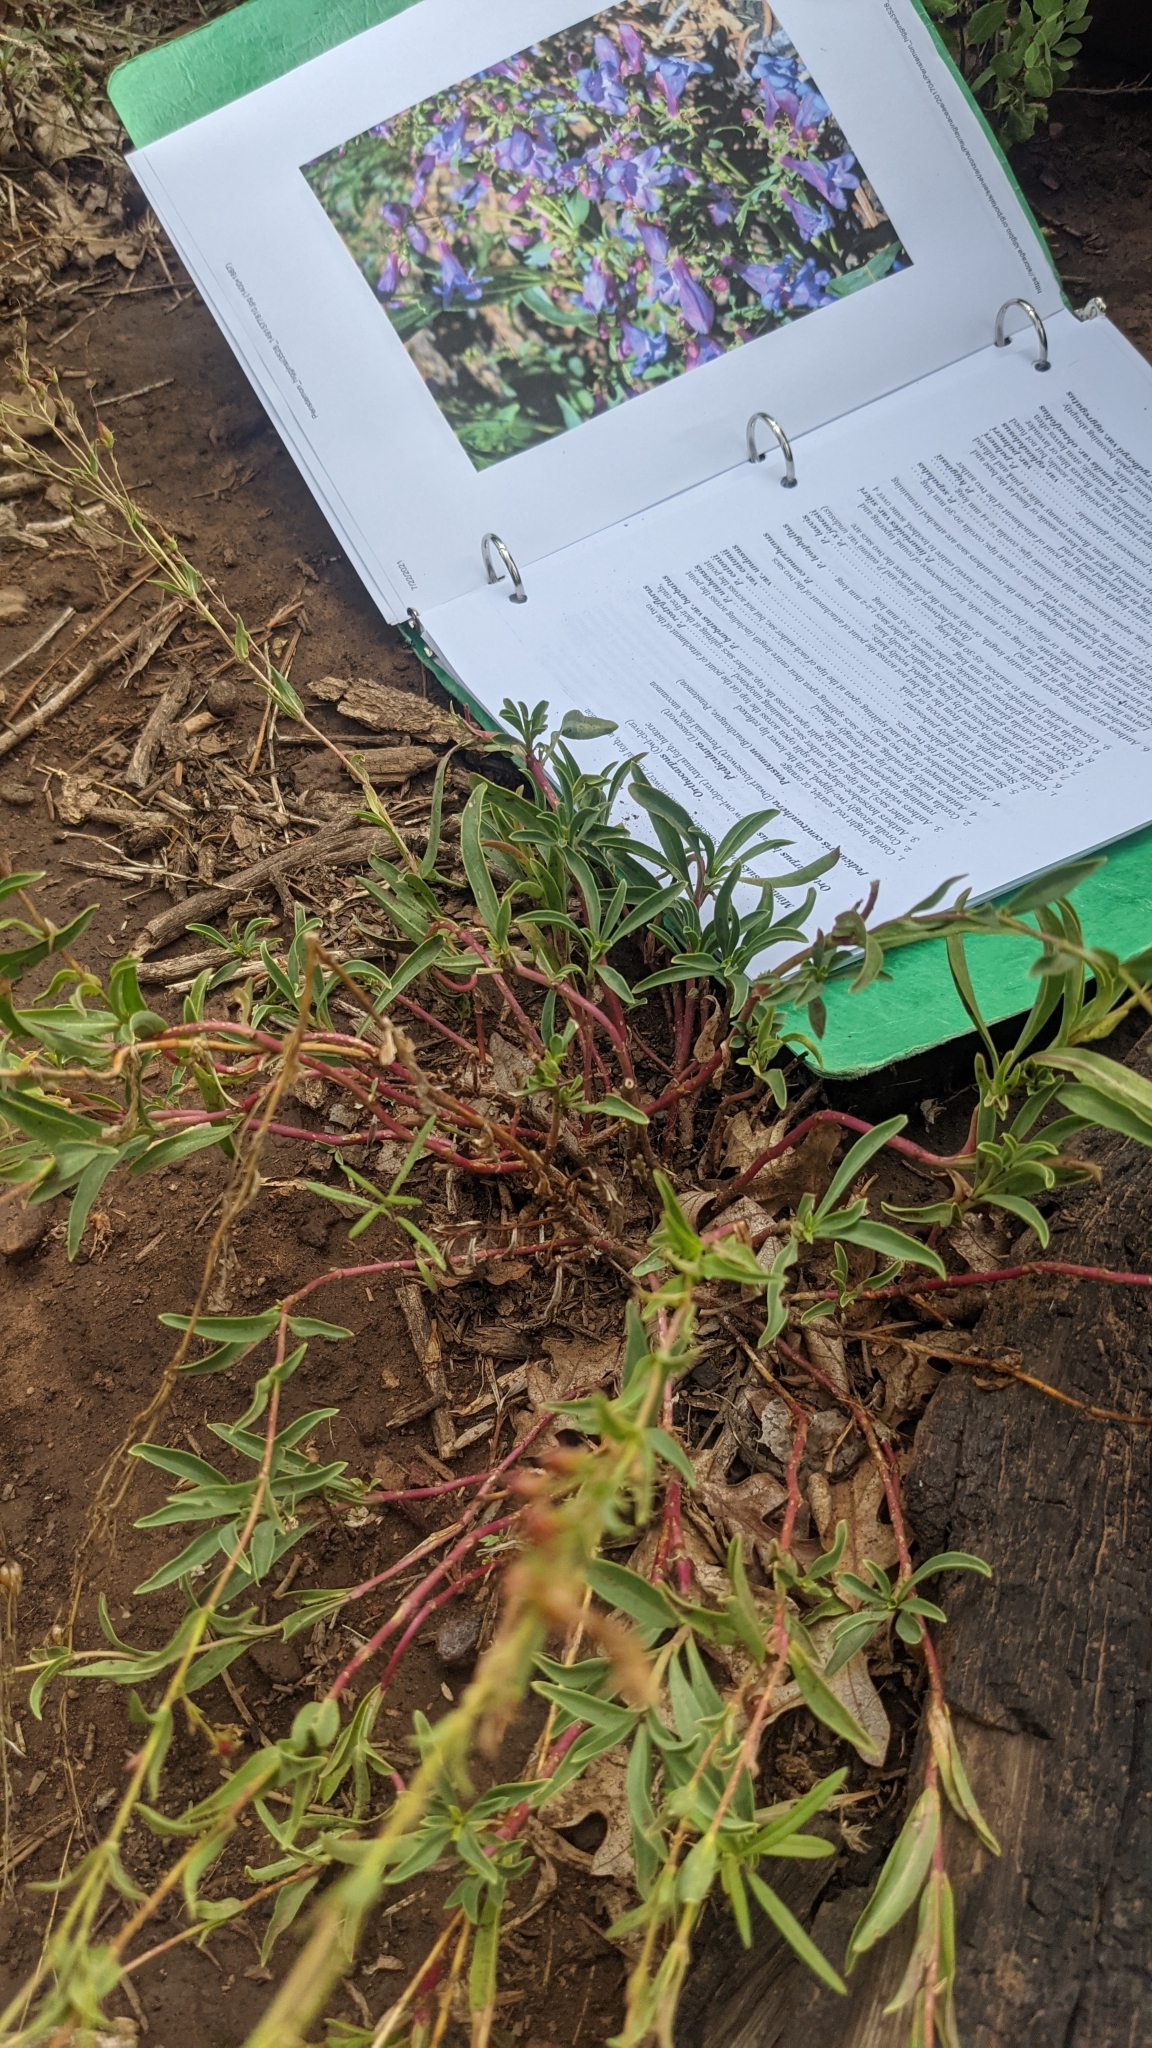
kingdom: Plantae
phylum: Tracheophyta
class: Magnoliopsida
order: Lamiales
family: Plantaginaceae
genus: Penstemon
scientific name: Penstemon leonardii
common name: Leonard's penstemon
